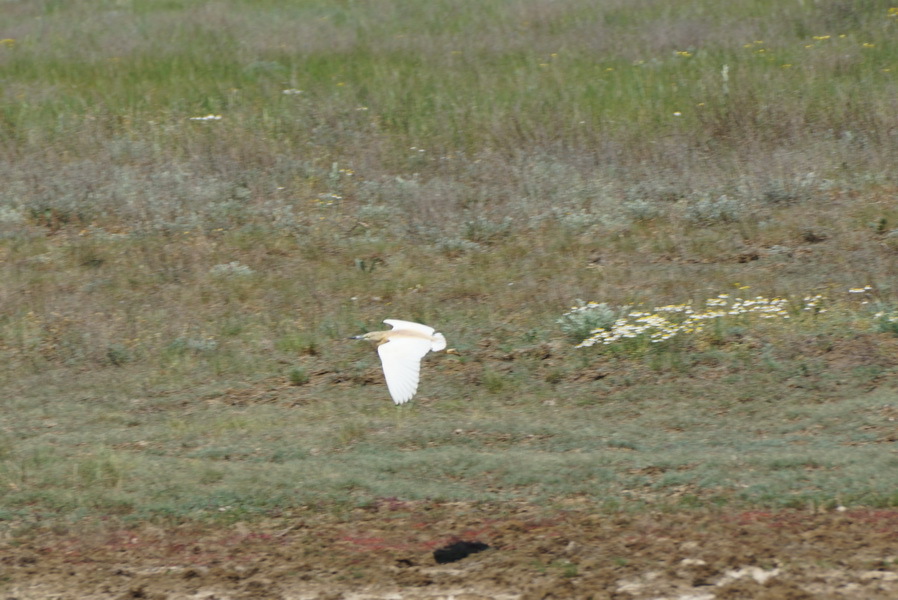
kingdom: Animalia
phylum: Chordata
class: Aves
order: Pelecaniformes
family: Ardeidae
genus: Ardeola
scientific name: Ardeola ralloides
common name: Squacco heron
